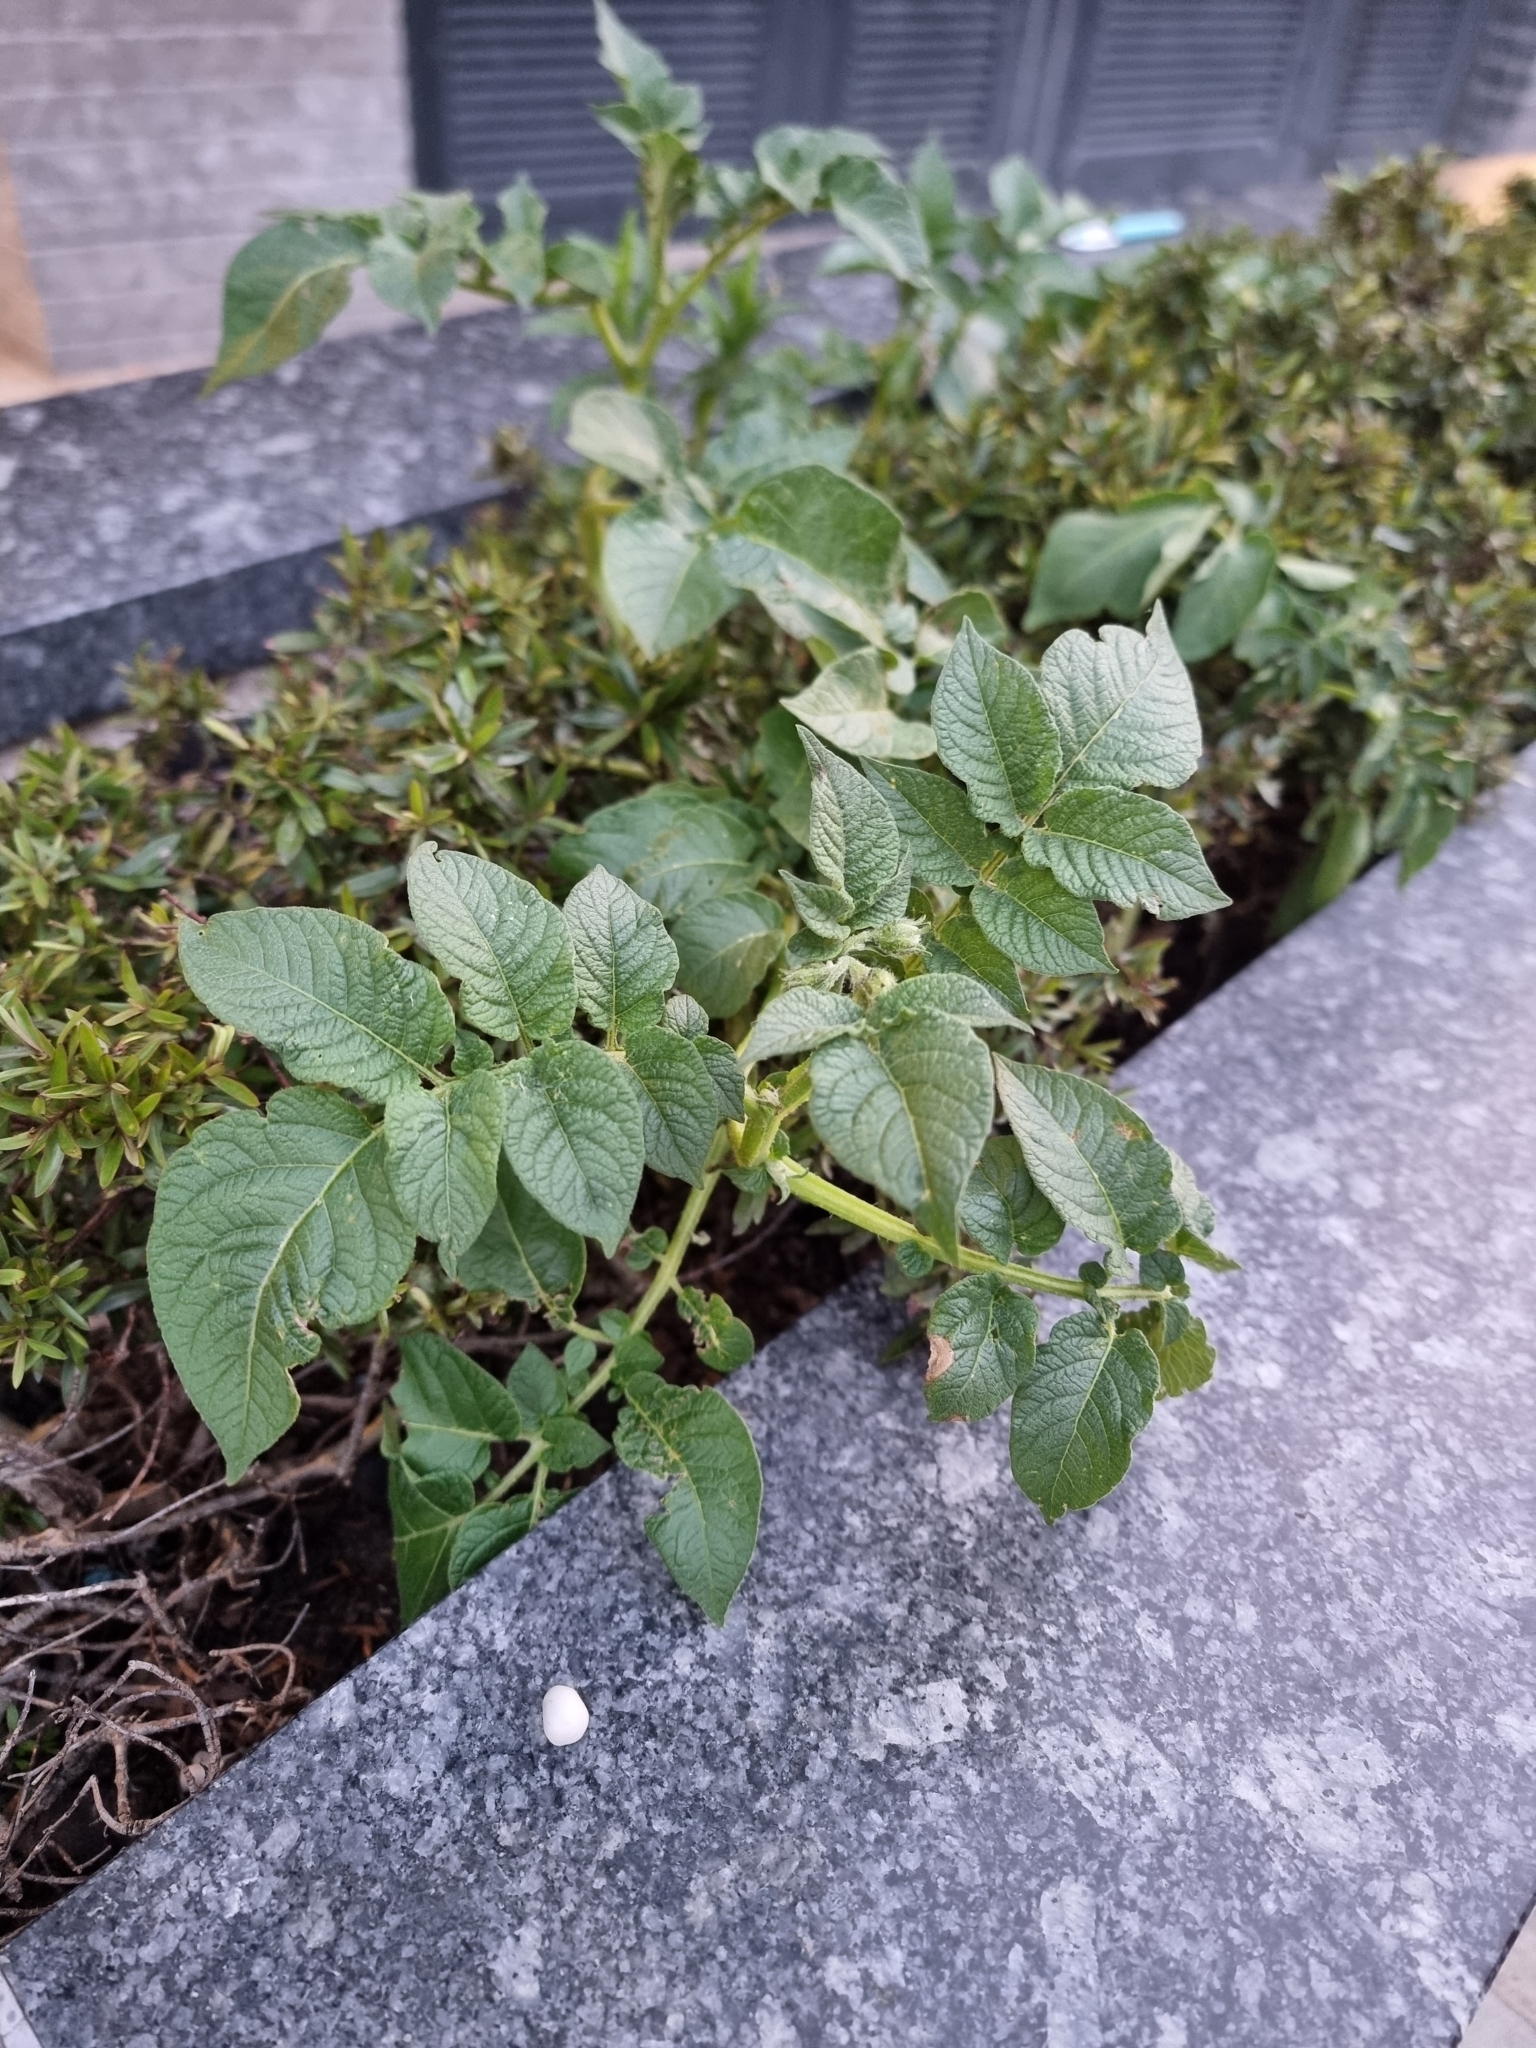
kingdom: Plantae
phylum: Tracheophyta
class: Magnoliopsida
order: Solanales
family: Solanaceae
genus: Solanum
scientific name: Solanum tuberosum
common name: Potato
